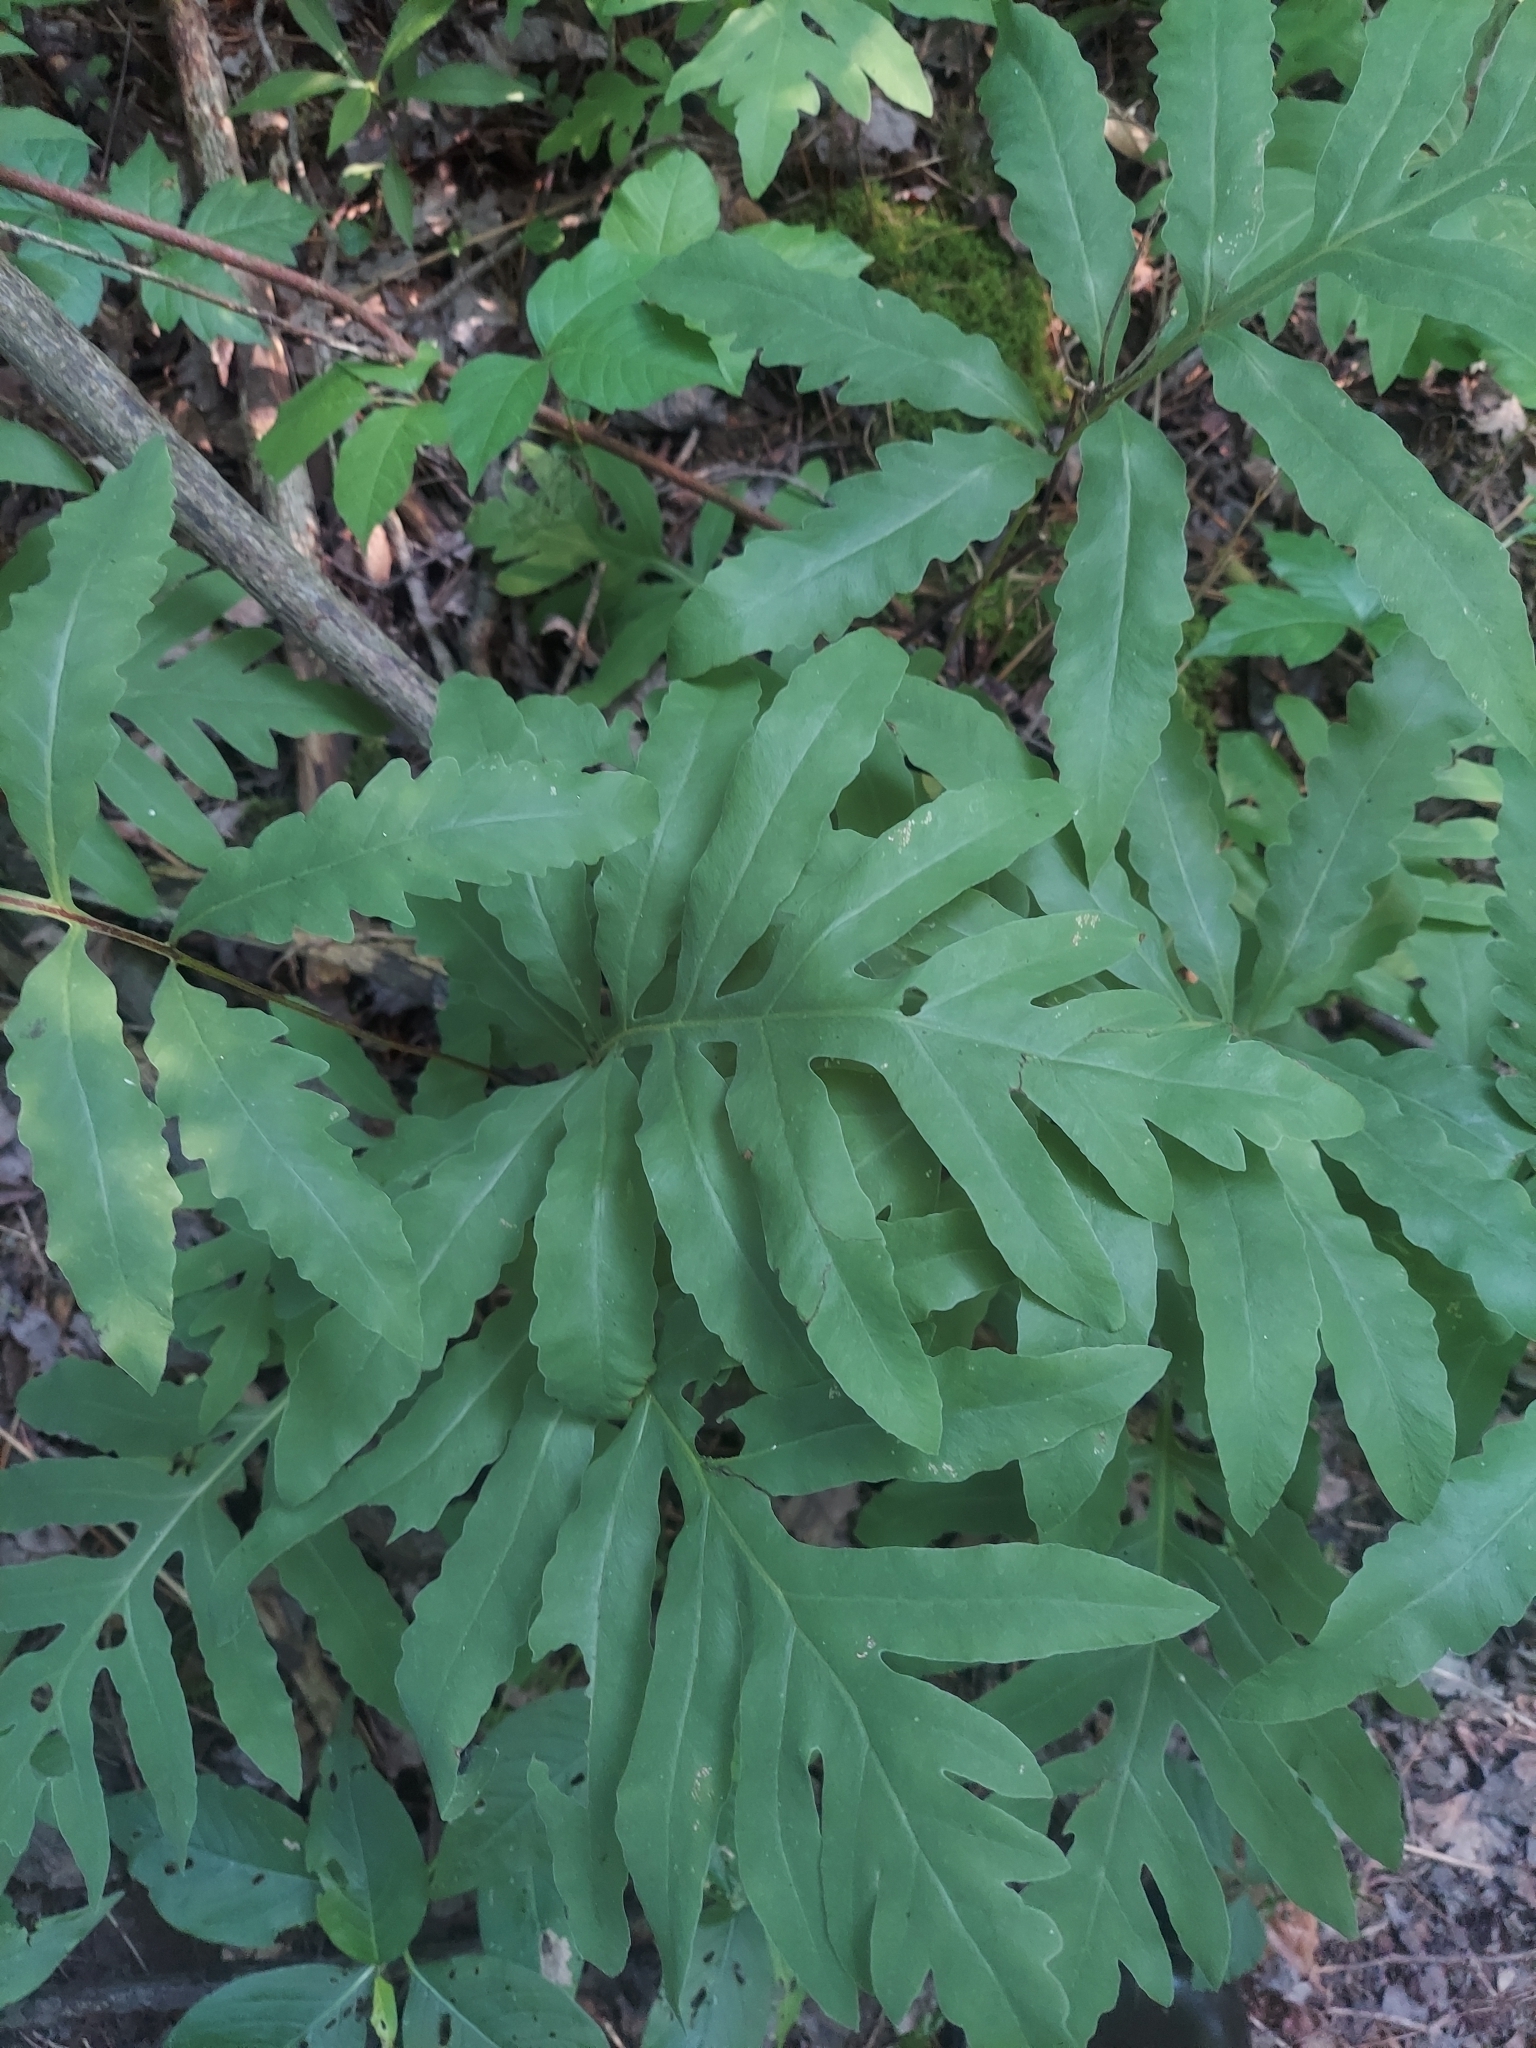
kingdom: Plantae
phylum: Tracheophyta
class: Polypodiopsida
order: Polypodiales
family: Onocleaceae
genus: Onoclea
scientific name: Onoclea sensibilis
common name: Sensitive fern
